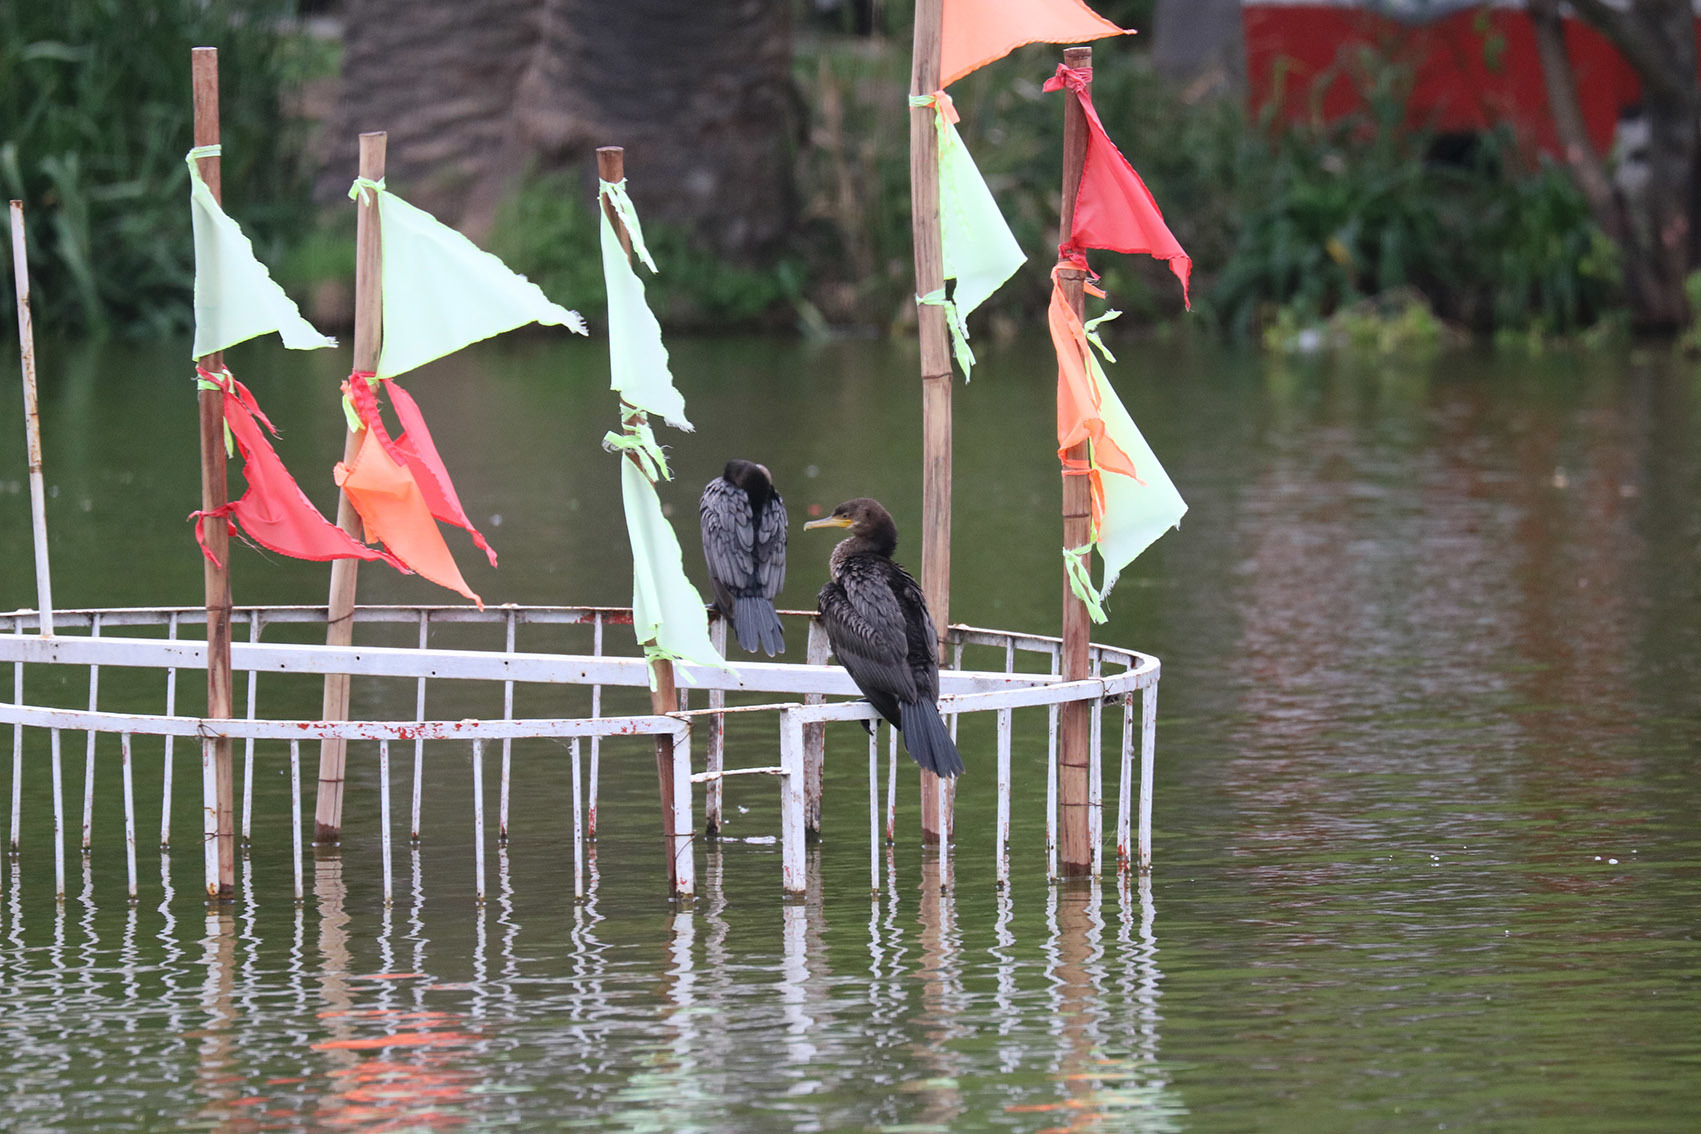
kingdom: Animalia
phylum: Chordata
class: Aves
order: Suliformes
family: Phalacrocoracidae
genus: Phalacrocorax
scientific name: Phalacrocorax brasilianus
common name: Neotropic cormorant
